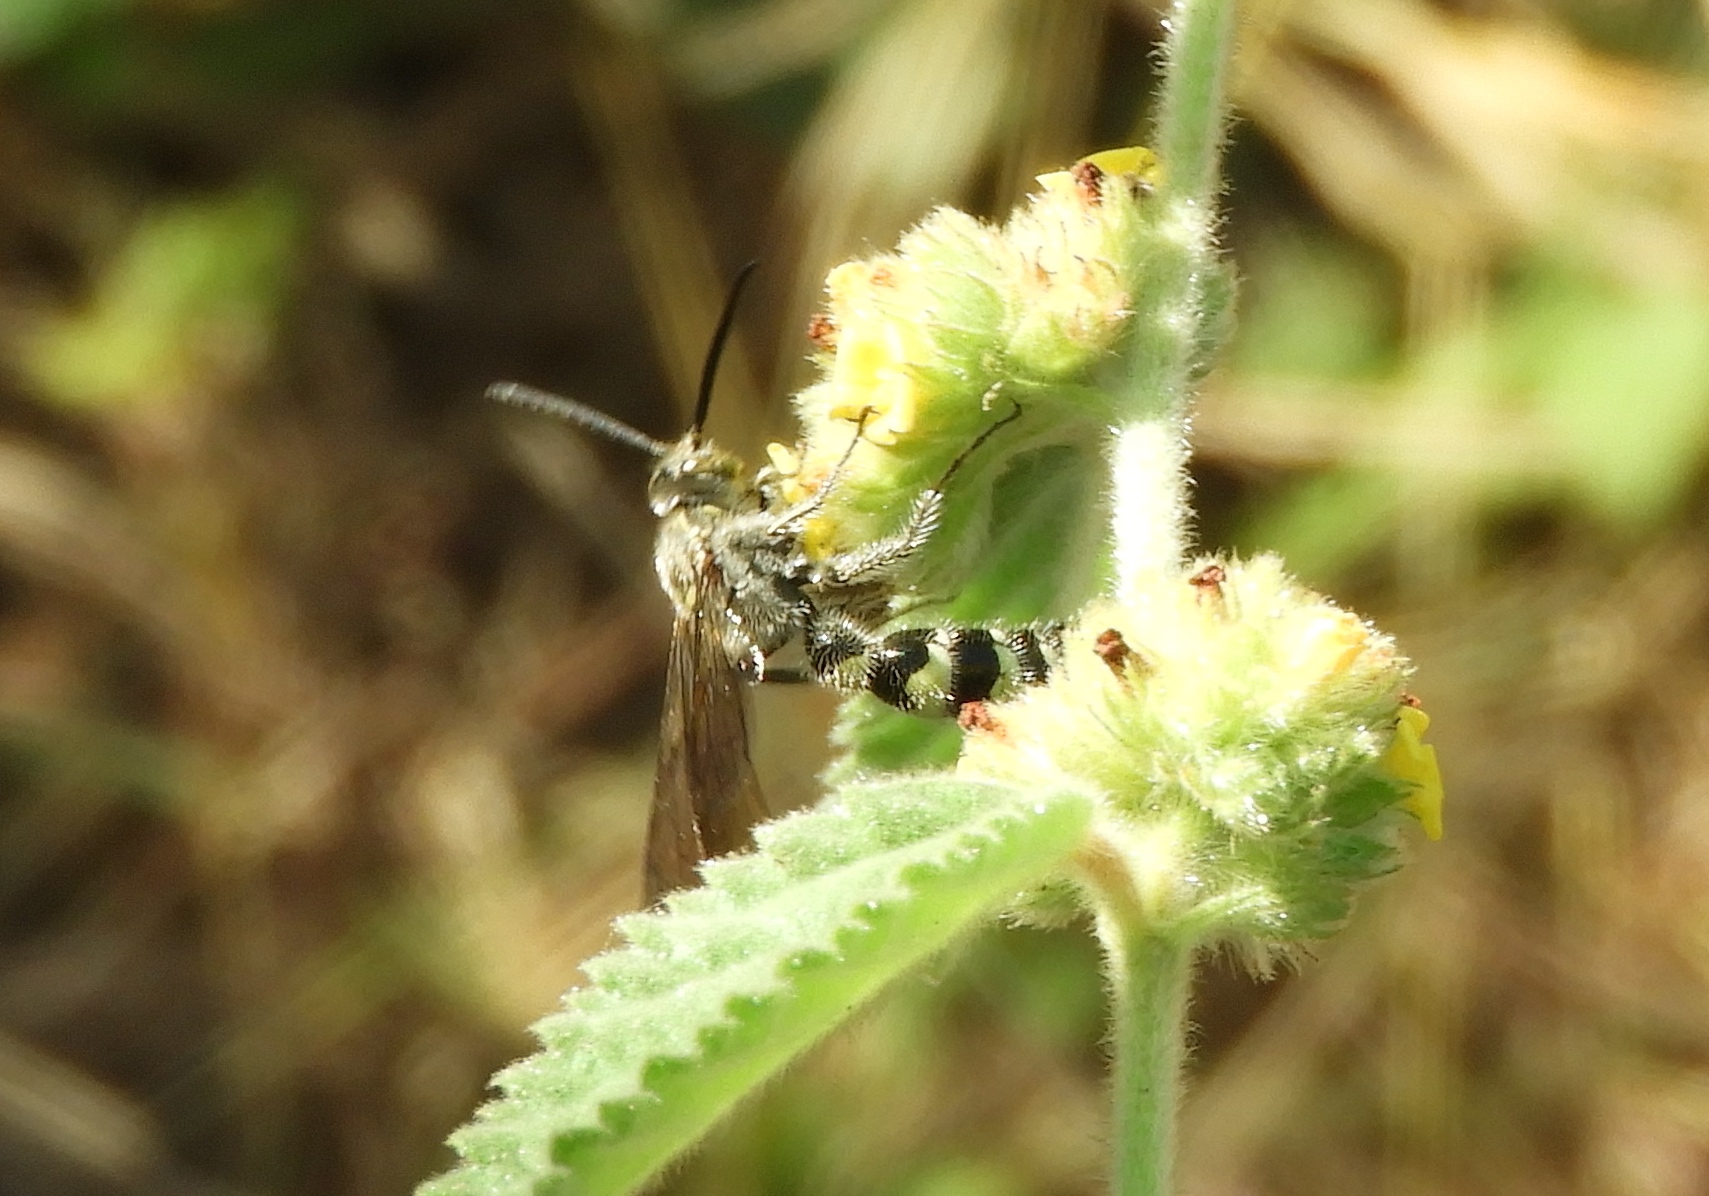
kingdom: Animalia
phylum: Arthropoda
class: Insecta
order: Hymenoptera
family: Scoliidae
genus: Dielis
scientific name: Dielis tolteca
